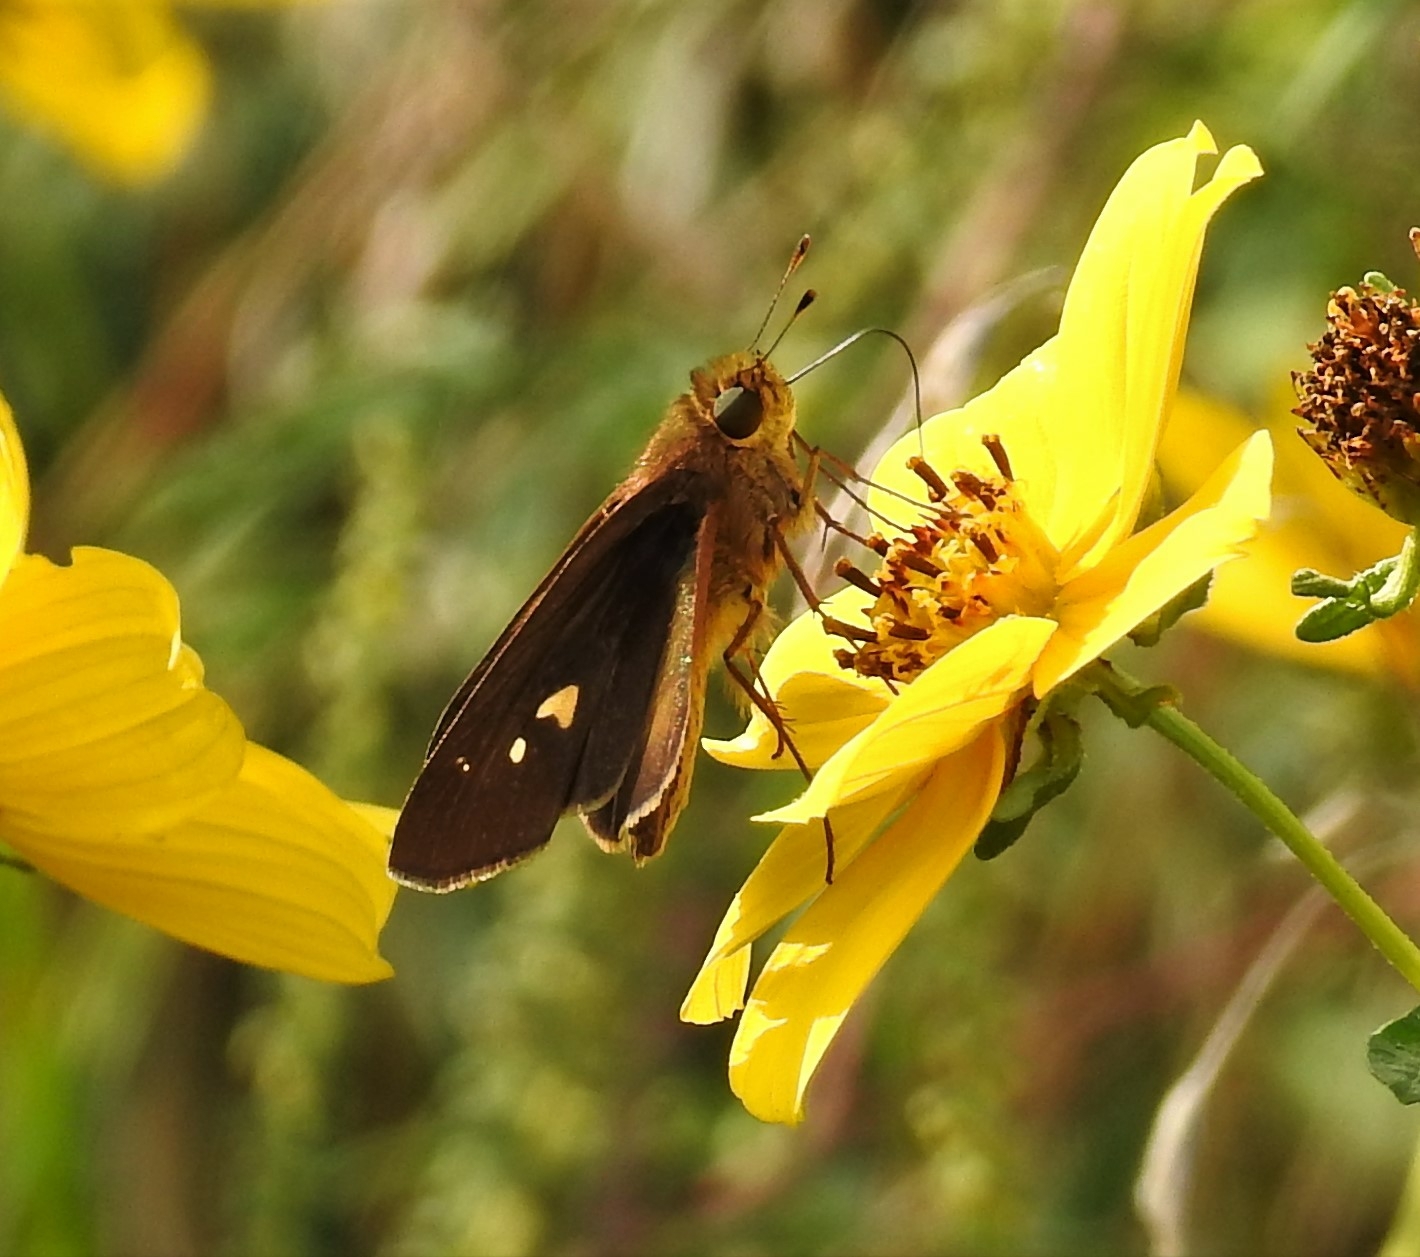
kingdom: Animalia
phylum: Arthropoda
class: Insecta
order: Lepidoptera
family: Hesperiidae
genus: Panoquina
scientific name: Panoquina ocola
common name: Ocola skipper
